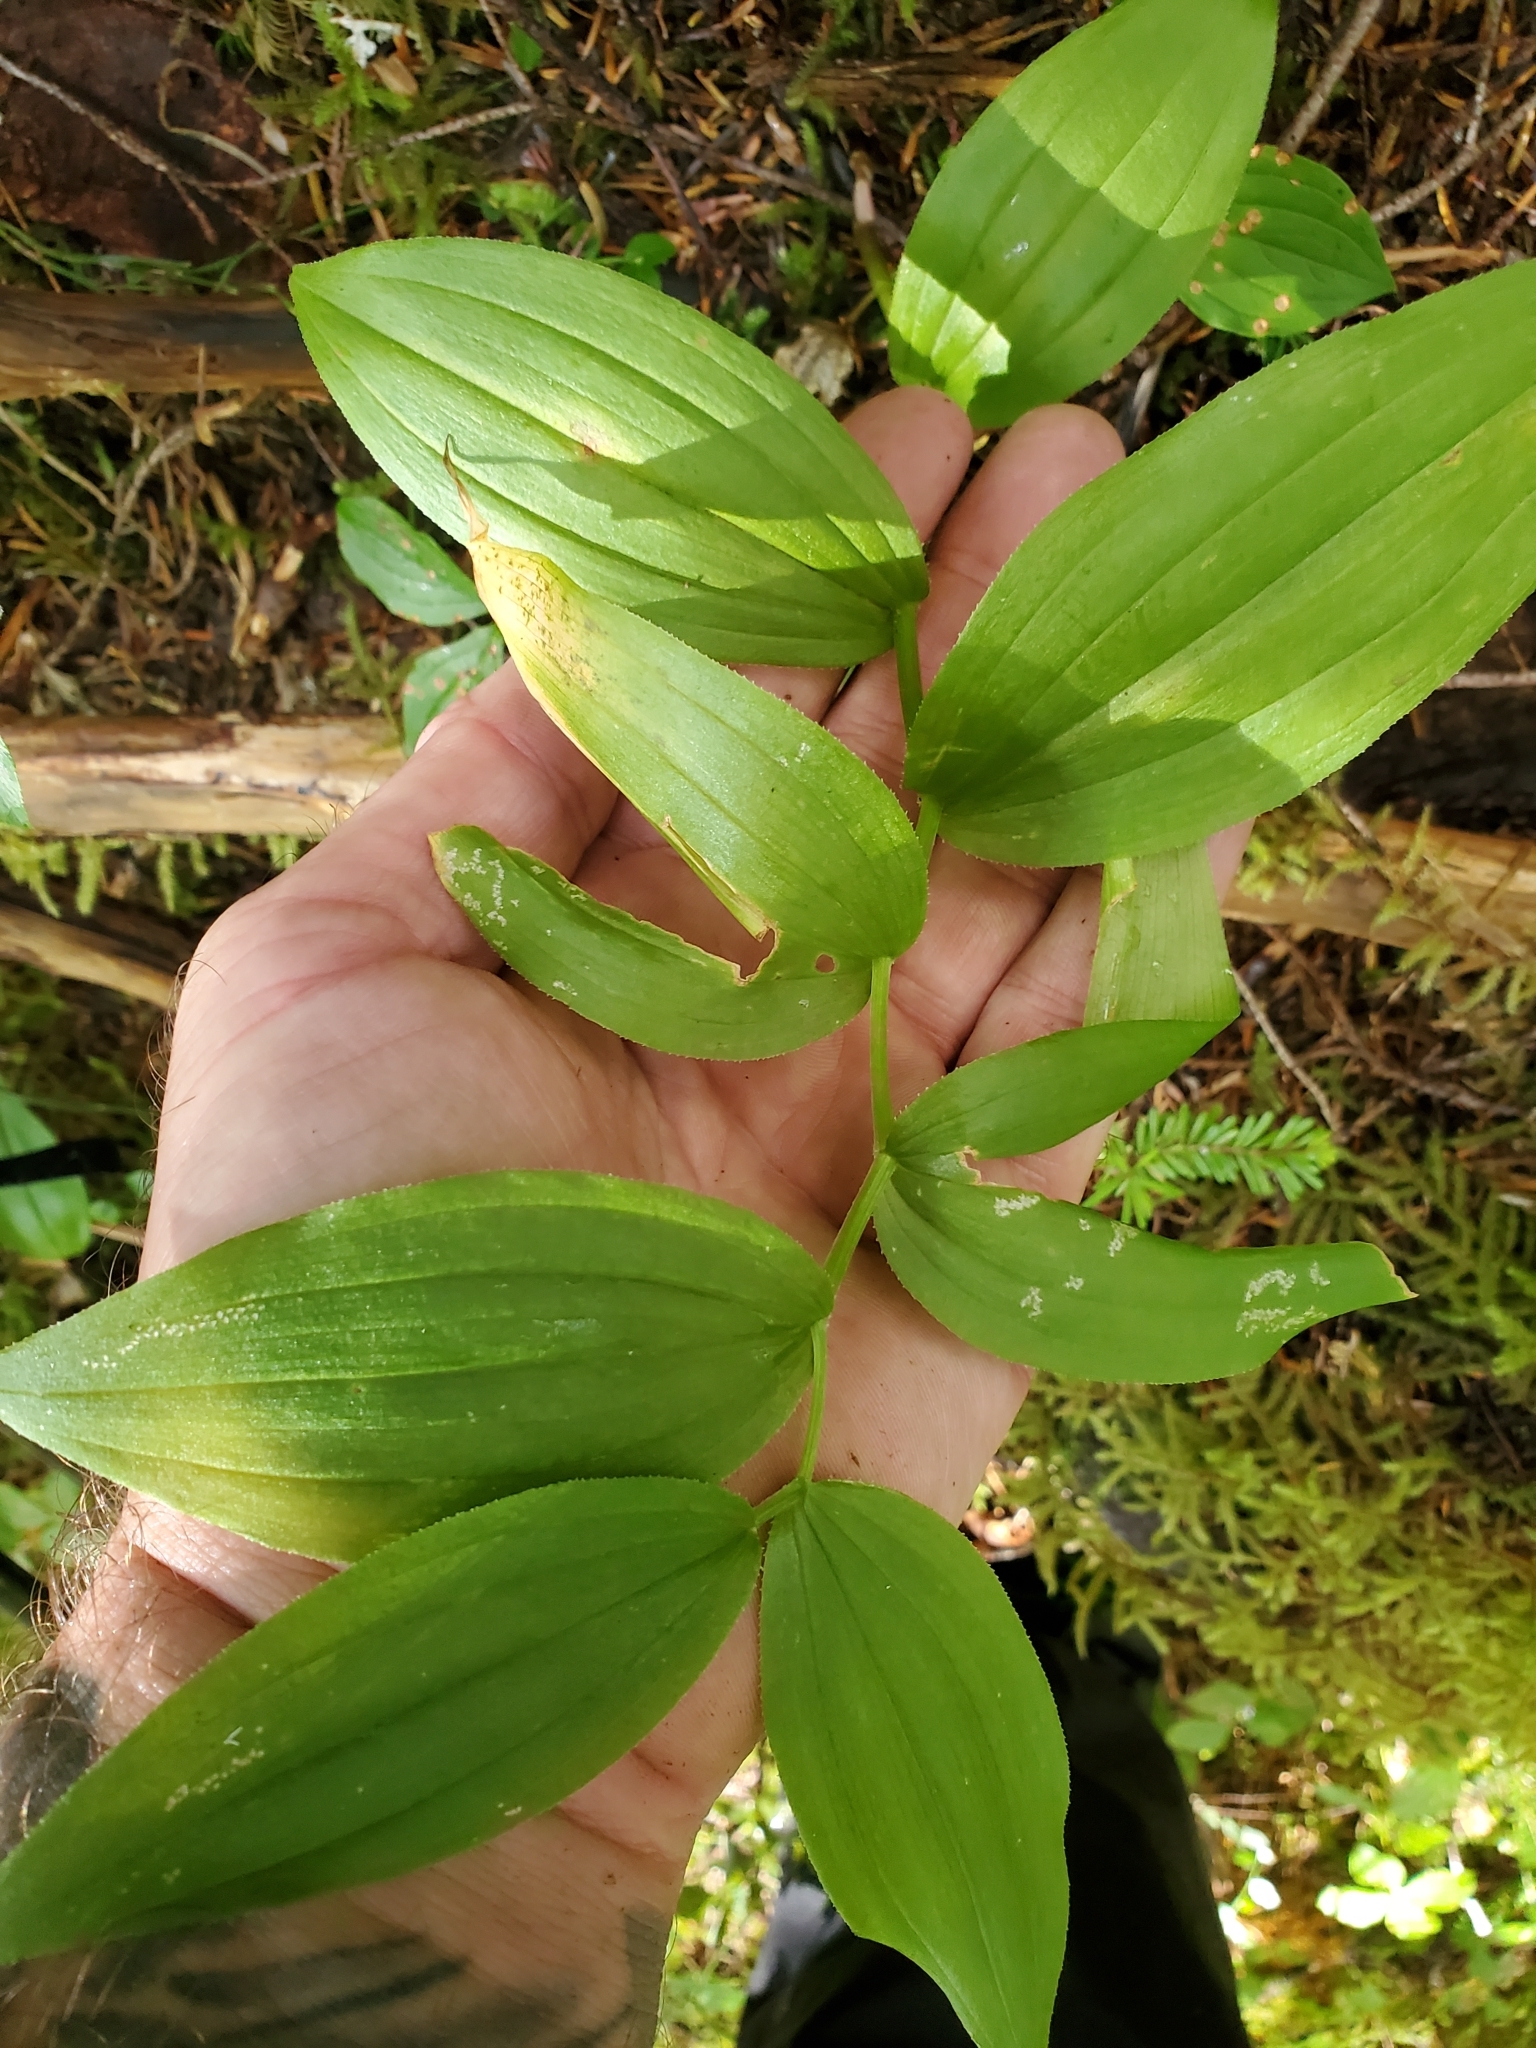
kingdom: Plantae
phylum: Tracheophyta
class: Liliopsida
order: Liliales
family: Liliaceae
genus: Streptopus
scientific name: Streptopus lanceolatus
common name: Rose mandarin
